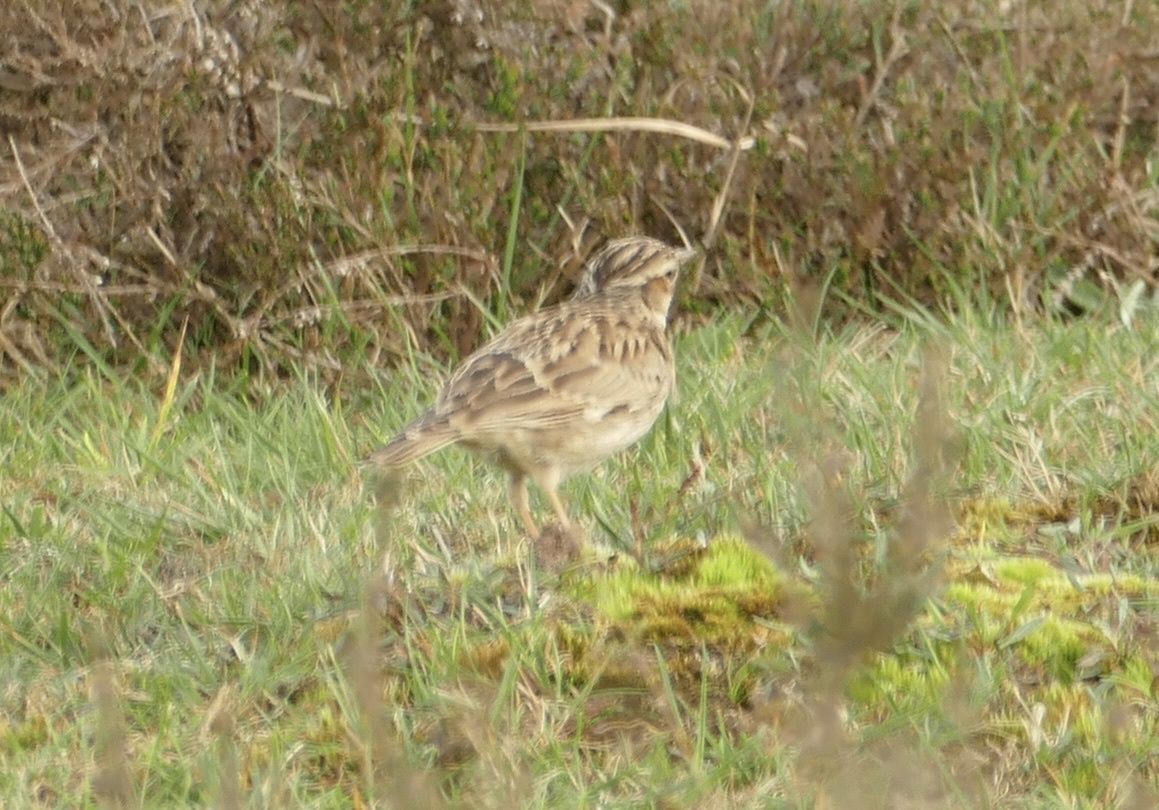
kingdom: Animalia
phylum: Chordata
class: Aves
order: Passeriformes
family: Alaudidae
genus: Lullula
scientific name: Lullula arborea
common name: Woodlark
